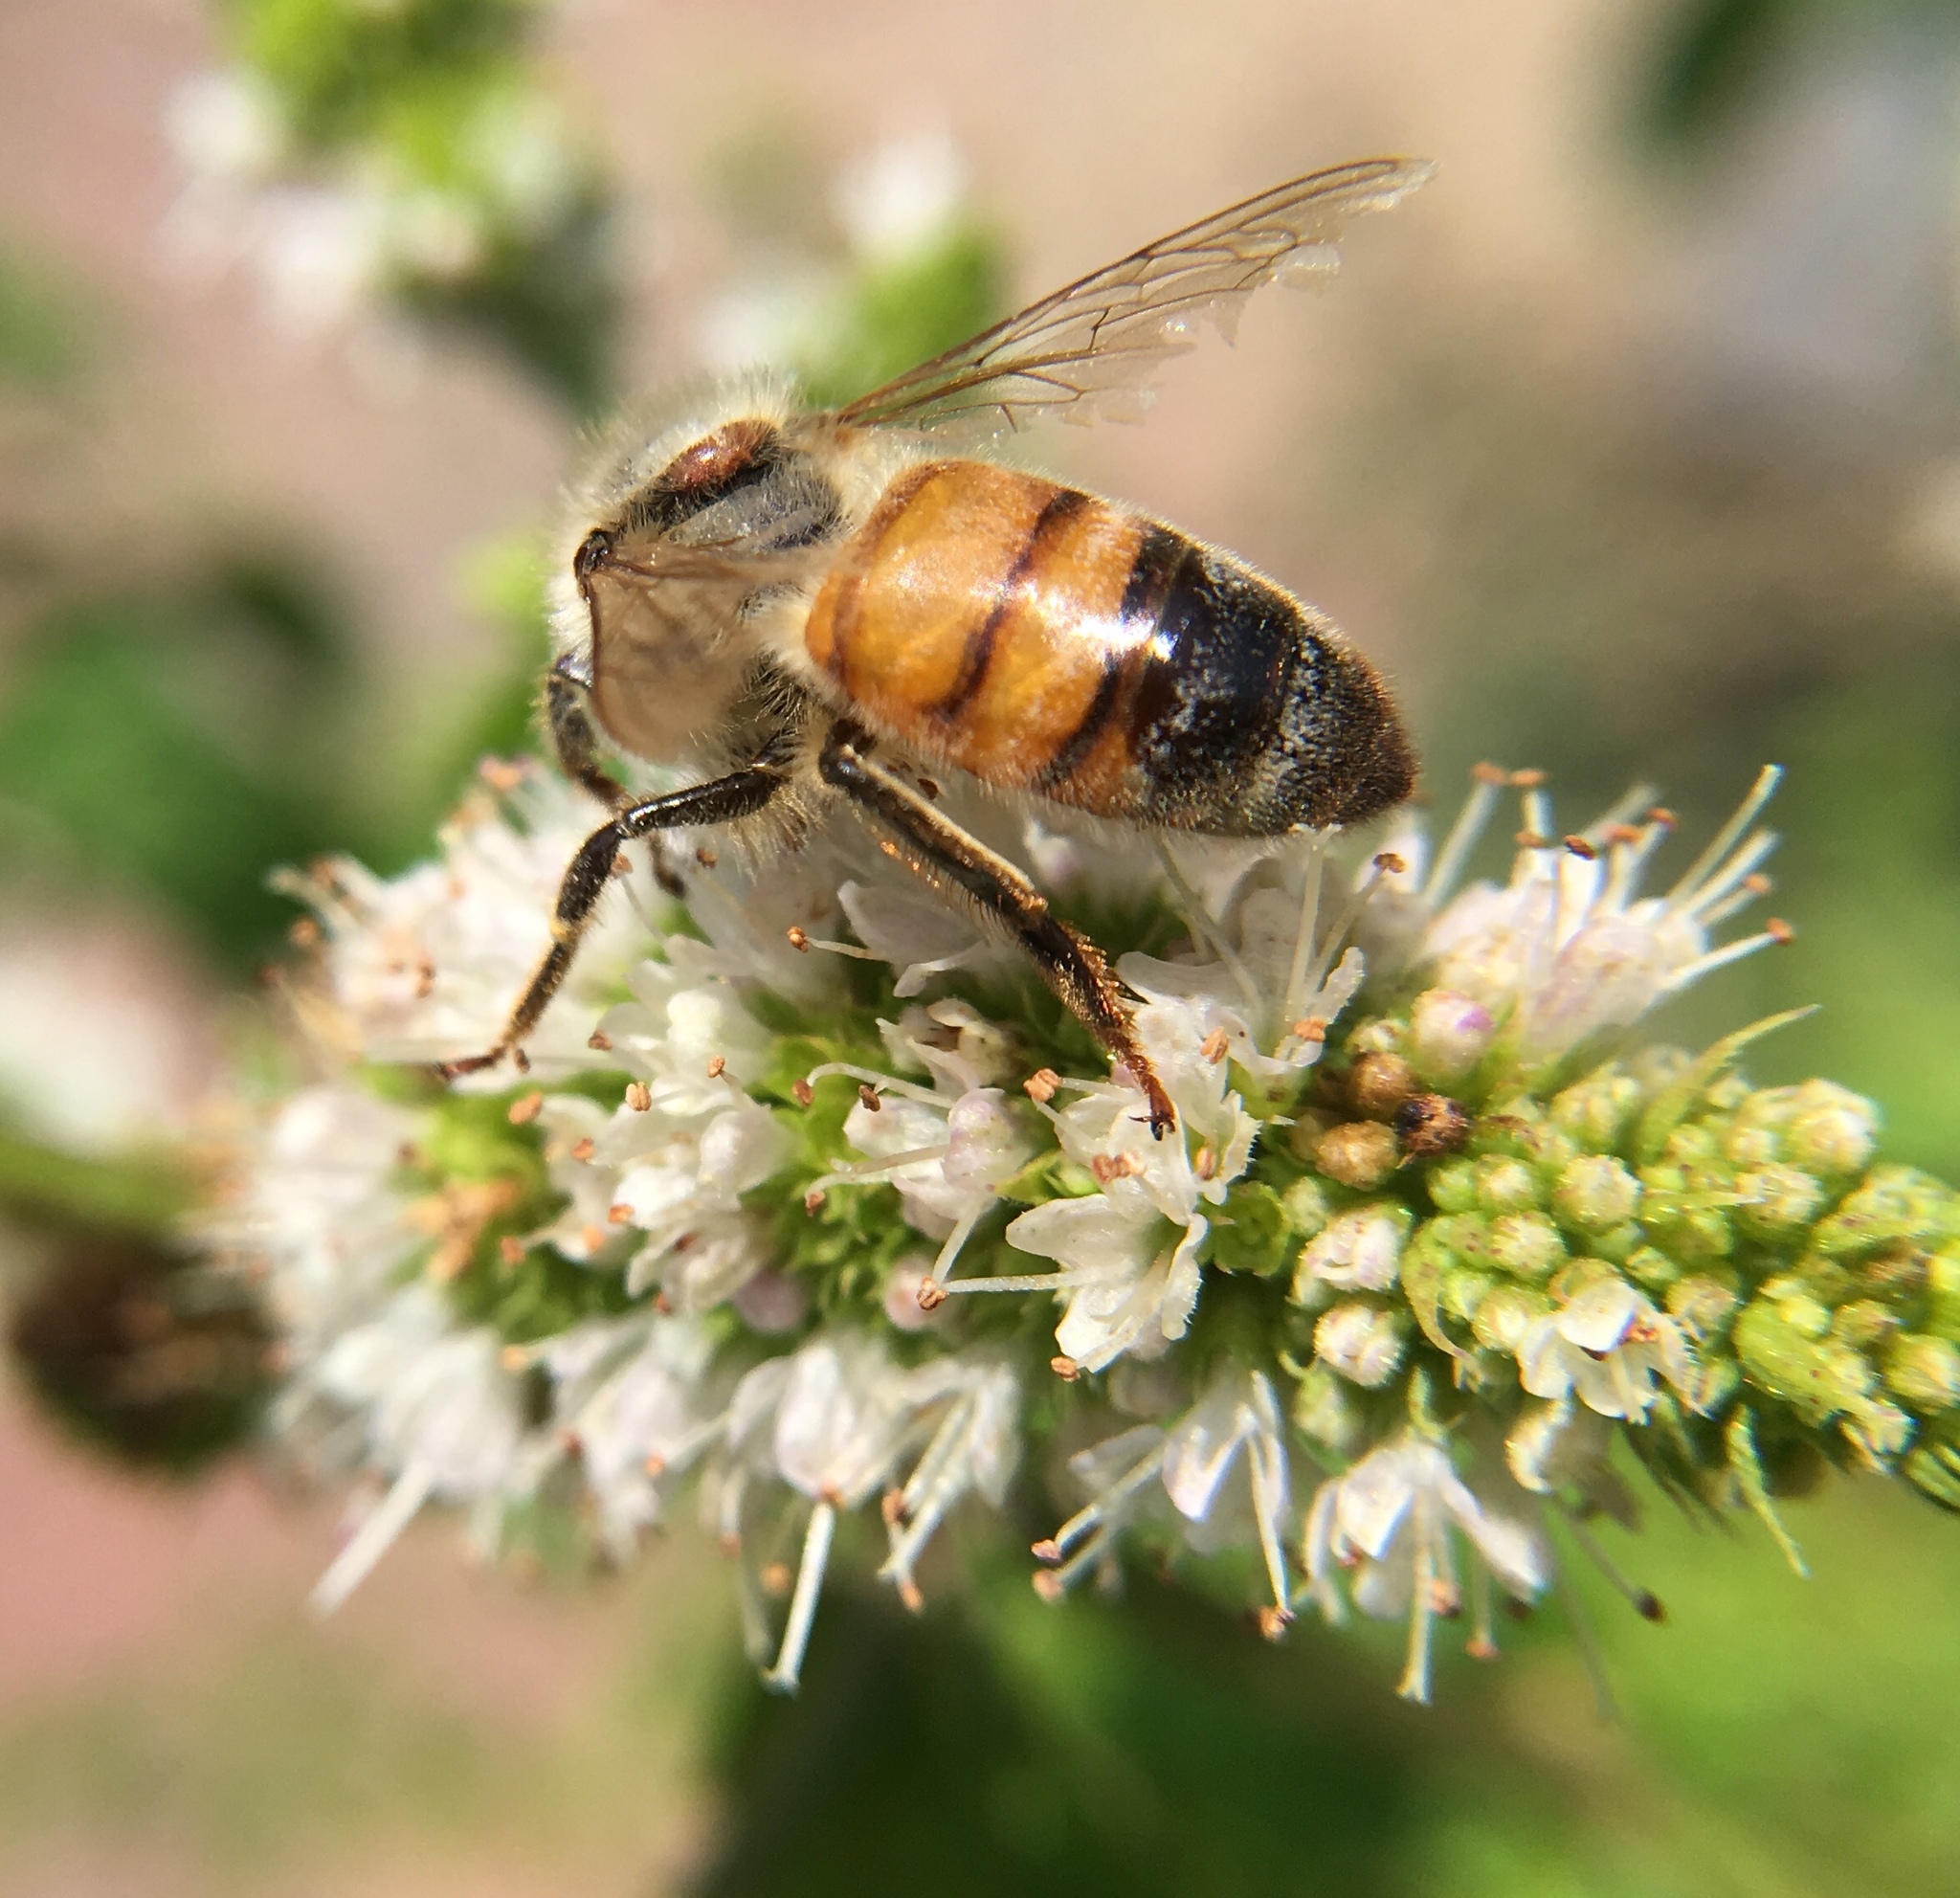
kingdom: Animalia
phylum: Arthropoda
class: Insecta
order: Hymenoptera
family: Apidae
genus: Apis
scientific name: Apis mellifera
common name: Honey bee
